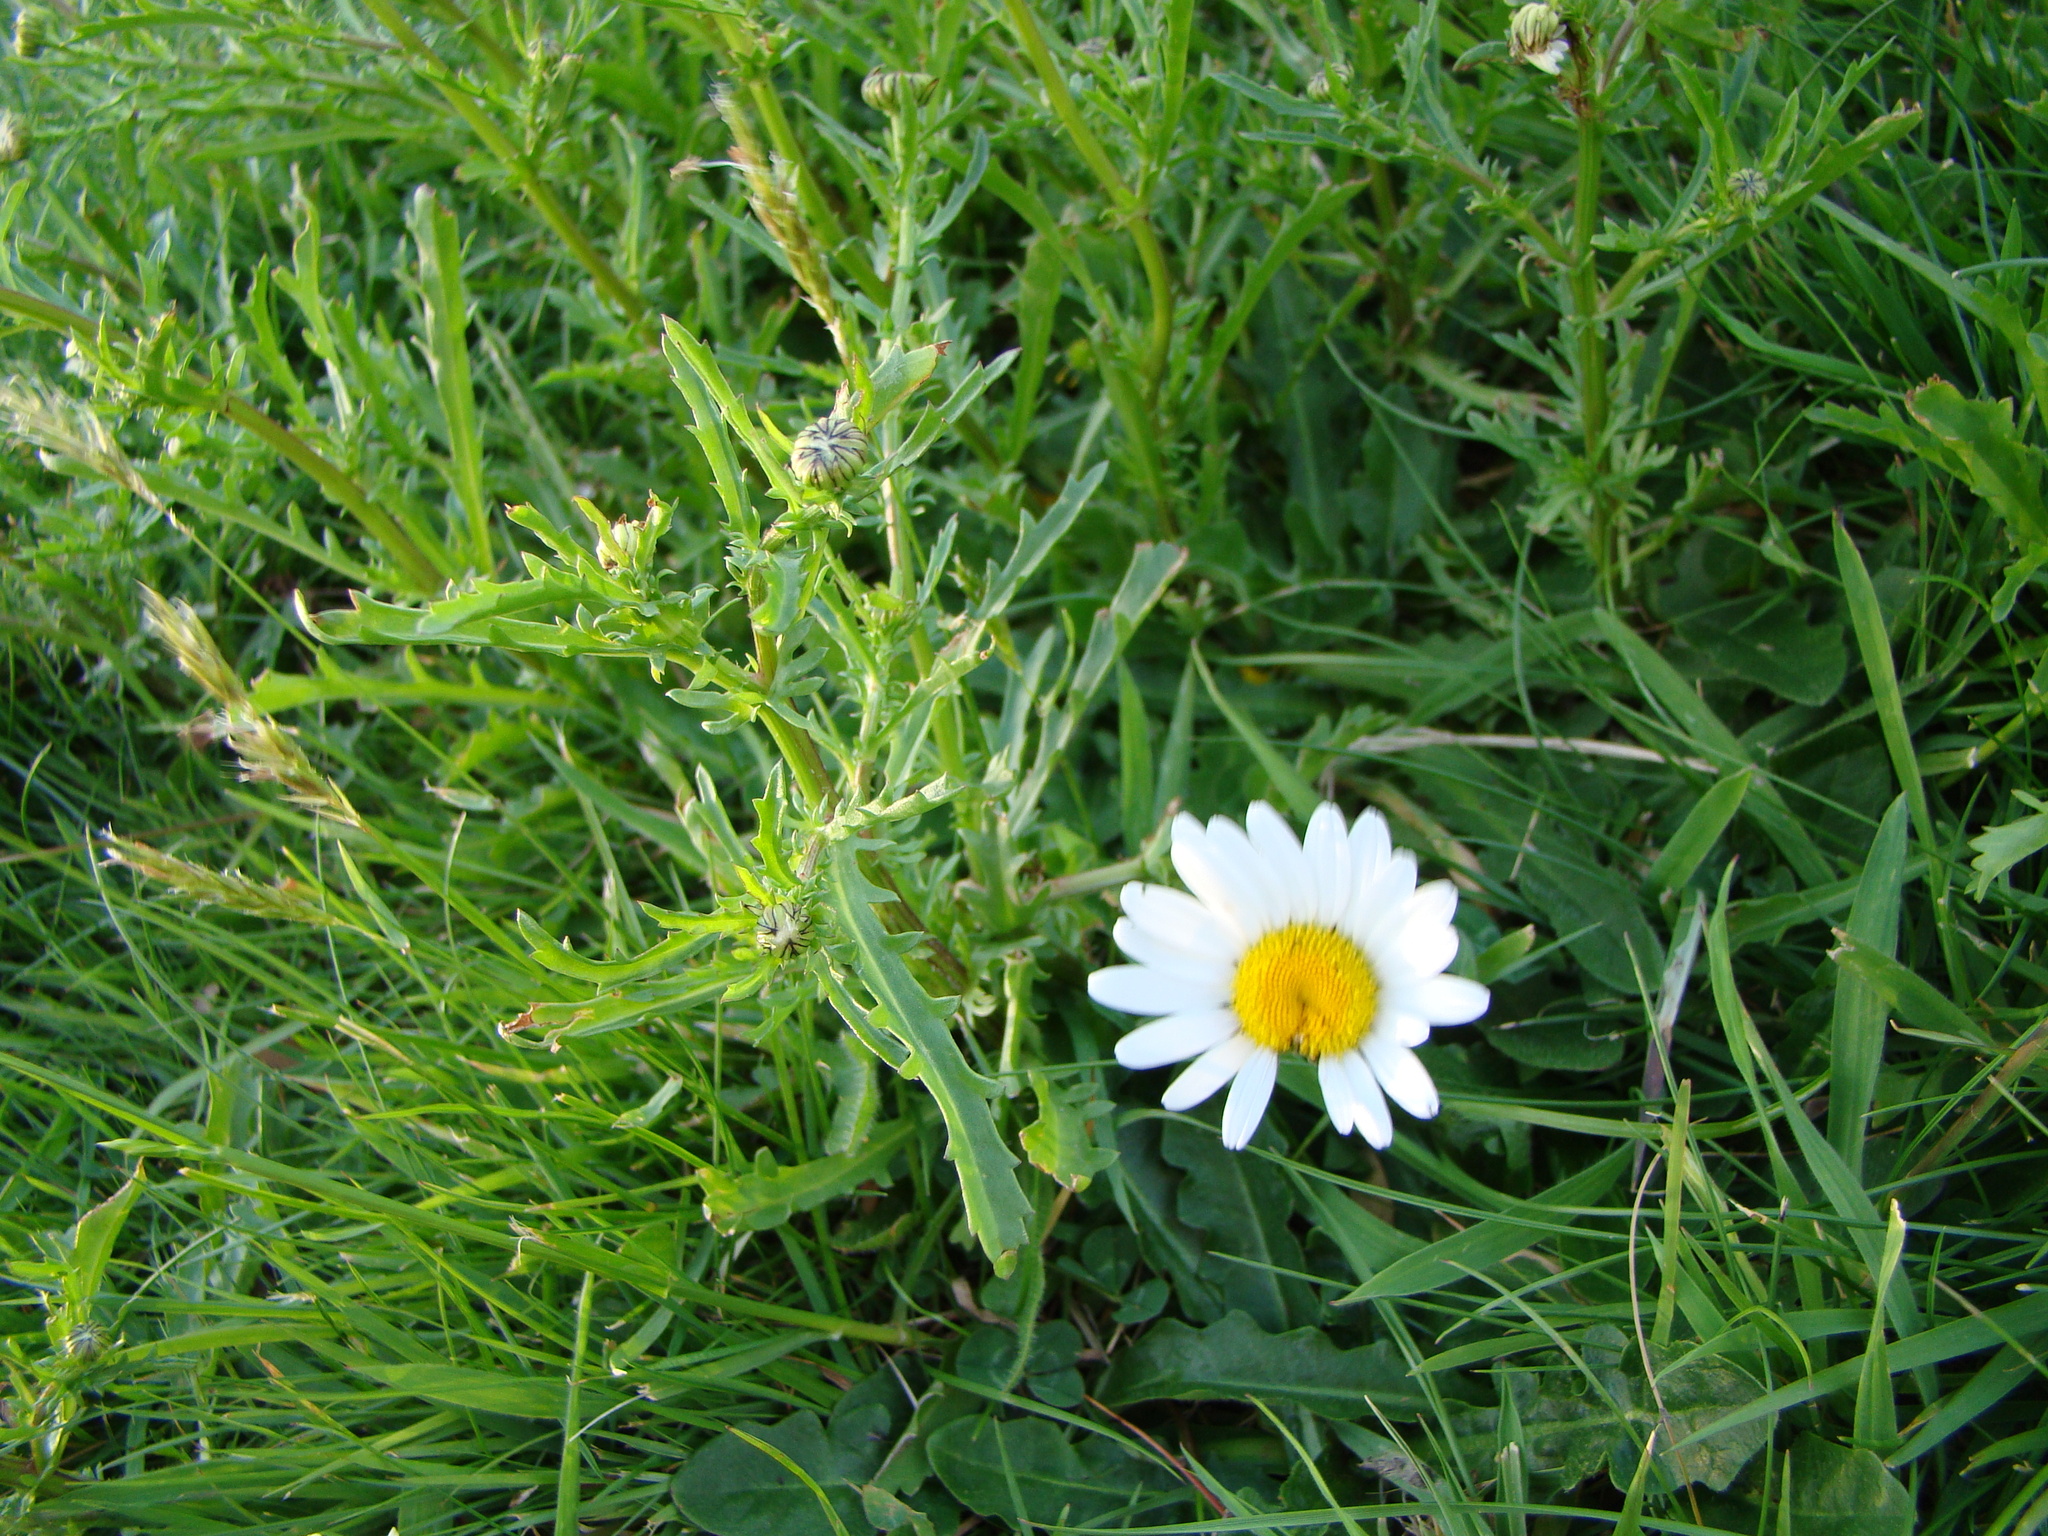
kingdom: Plantae
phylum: Tracheophyta
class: Magnoliopsida
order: Asterales
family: Asteraceae
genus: Leucanthemum
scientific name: Leucanthemum vulgare
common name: Oxeye daisy
